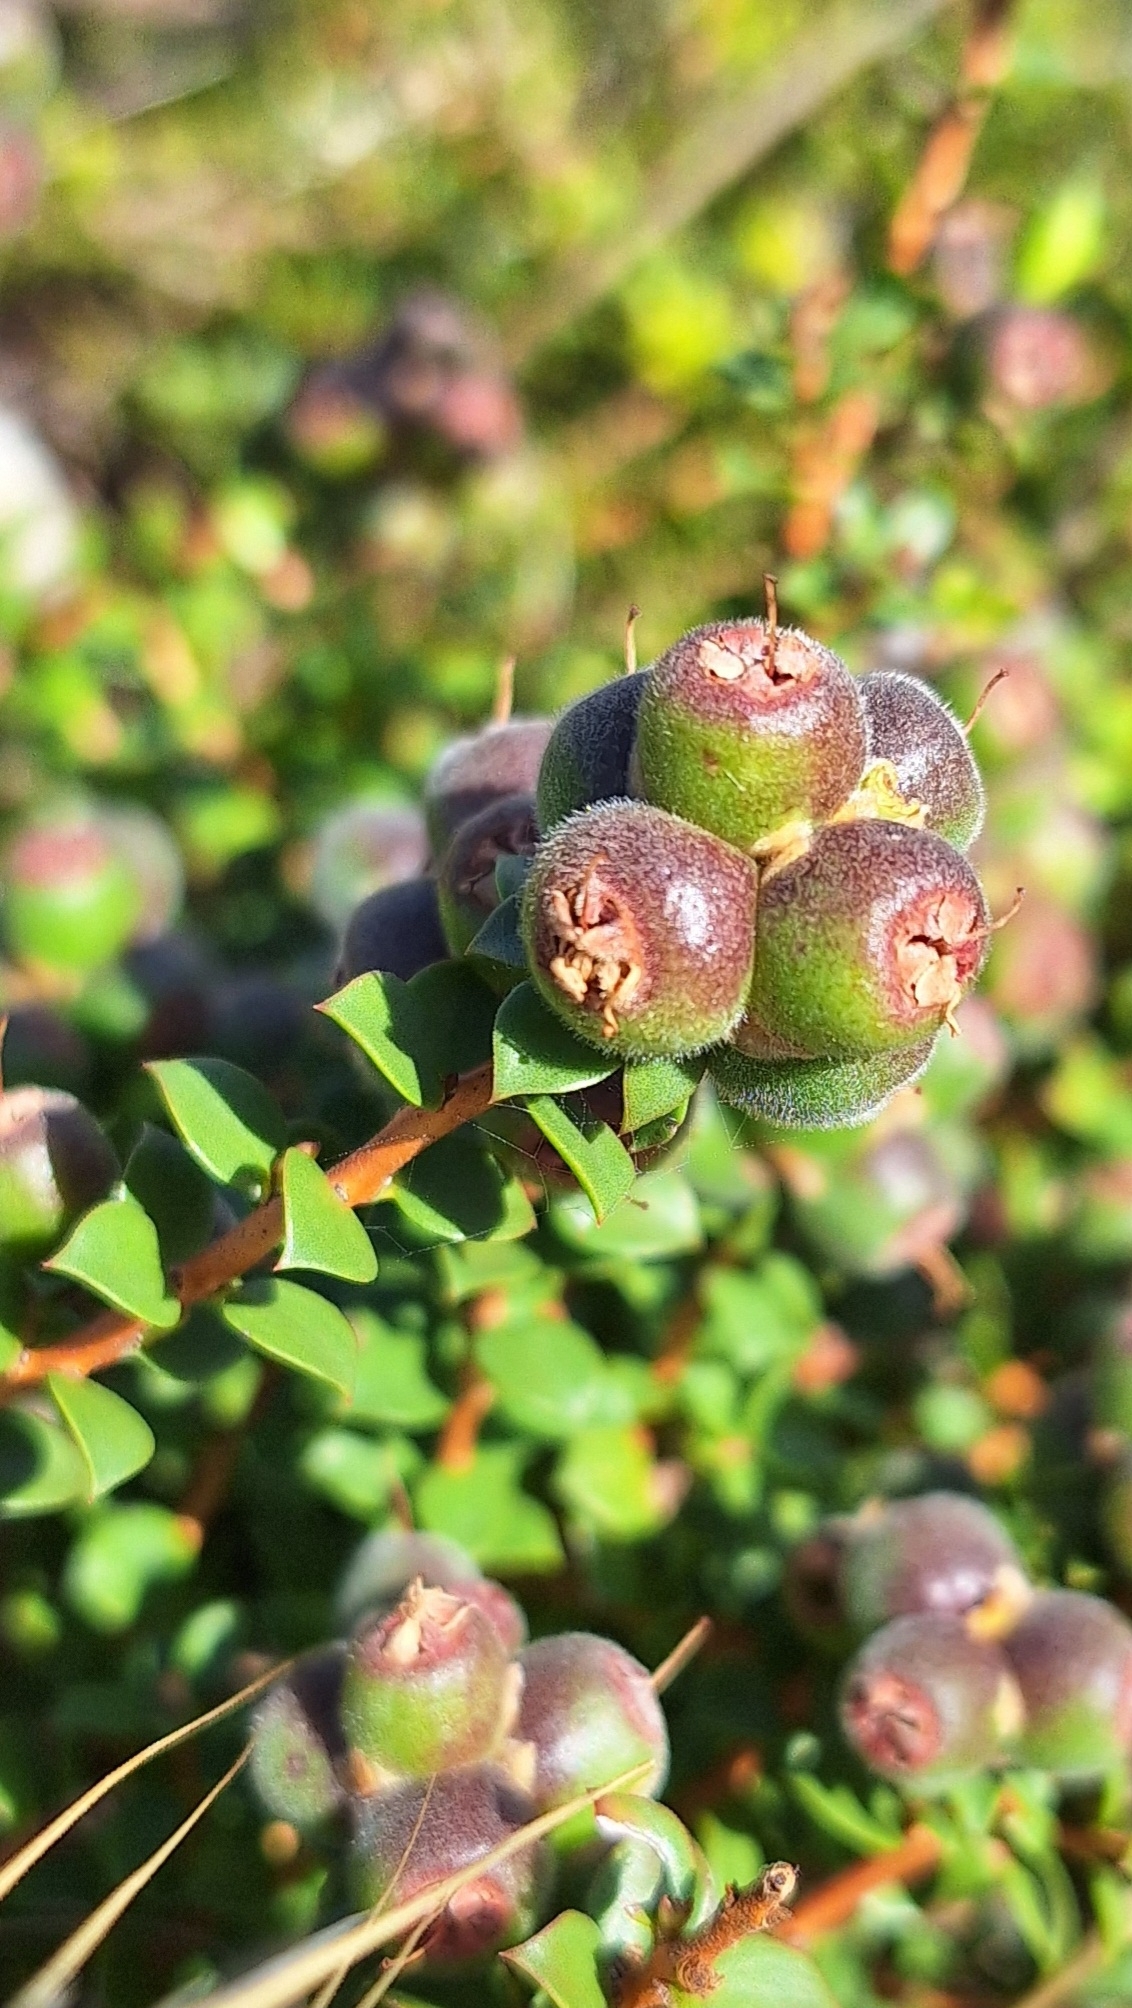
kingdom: Plantae
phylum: Tracheophyta
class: Magnoliopsida
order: Myrtales
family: Myrtaceae
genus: Kunzea
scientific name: Kunzea pomifera
